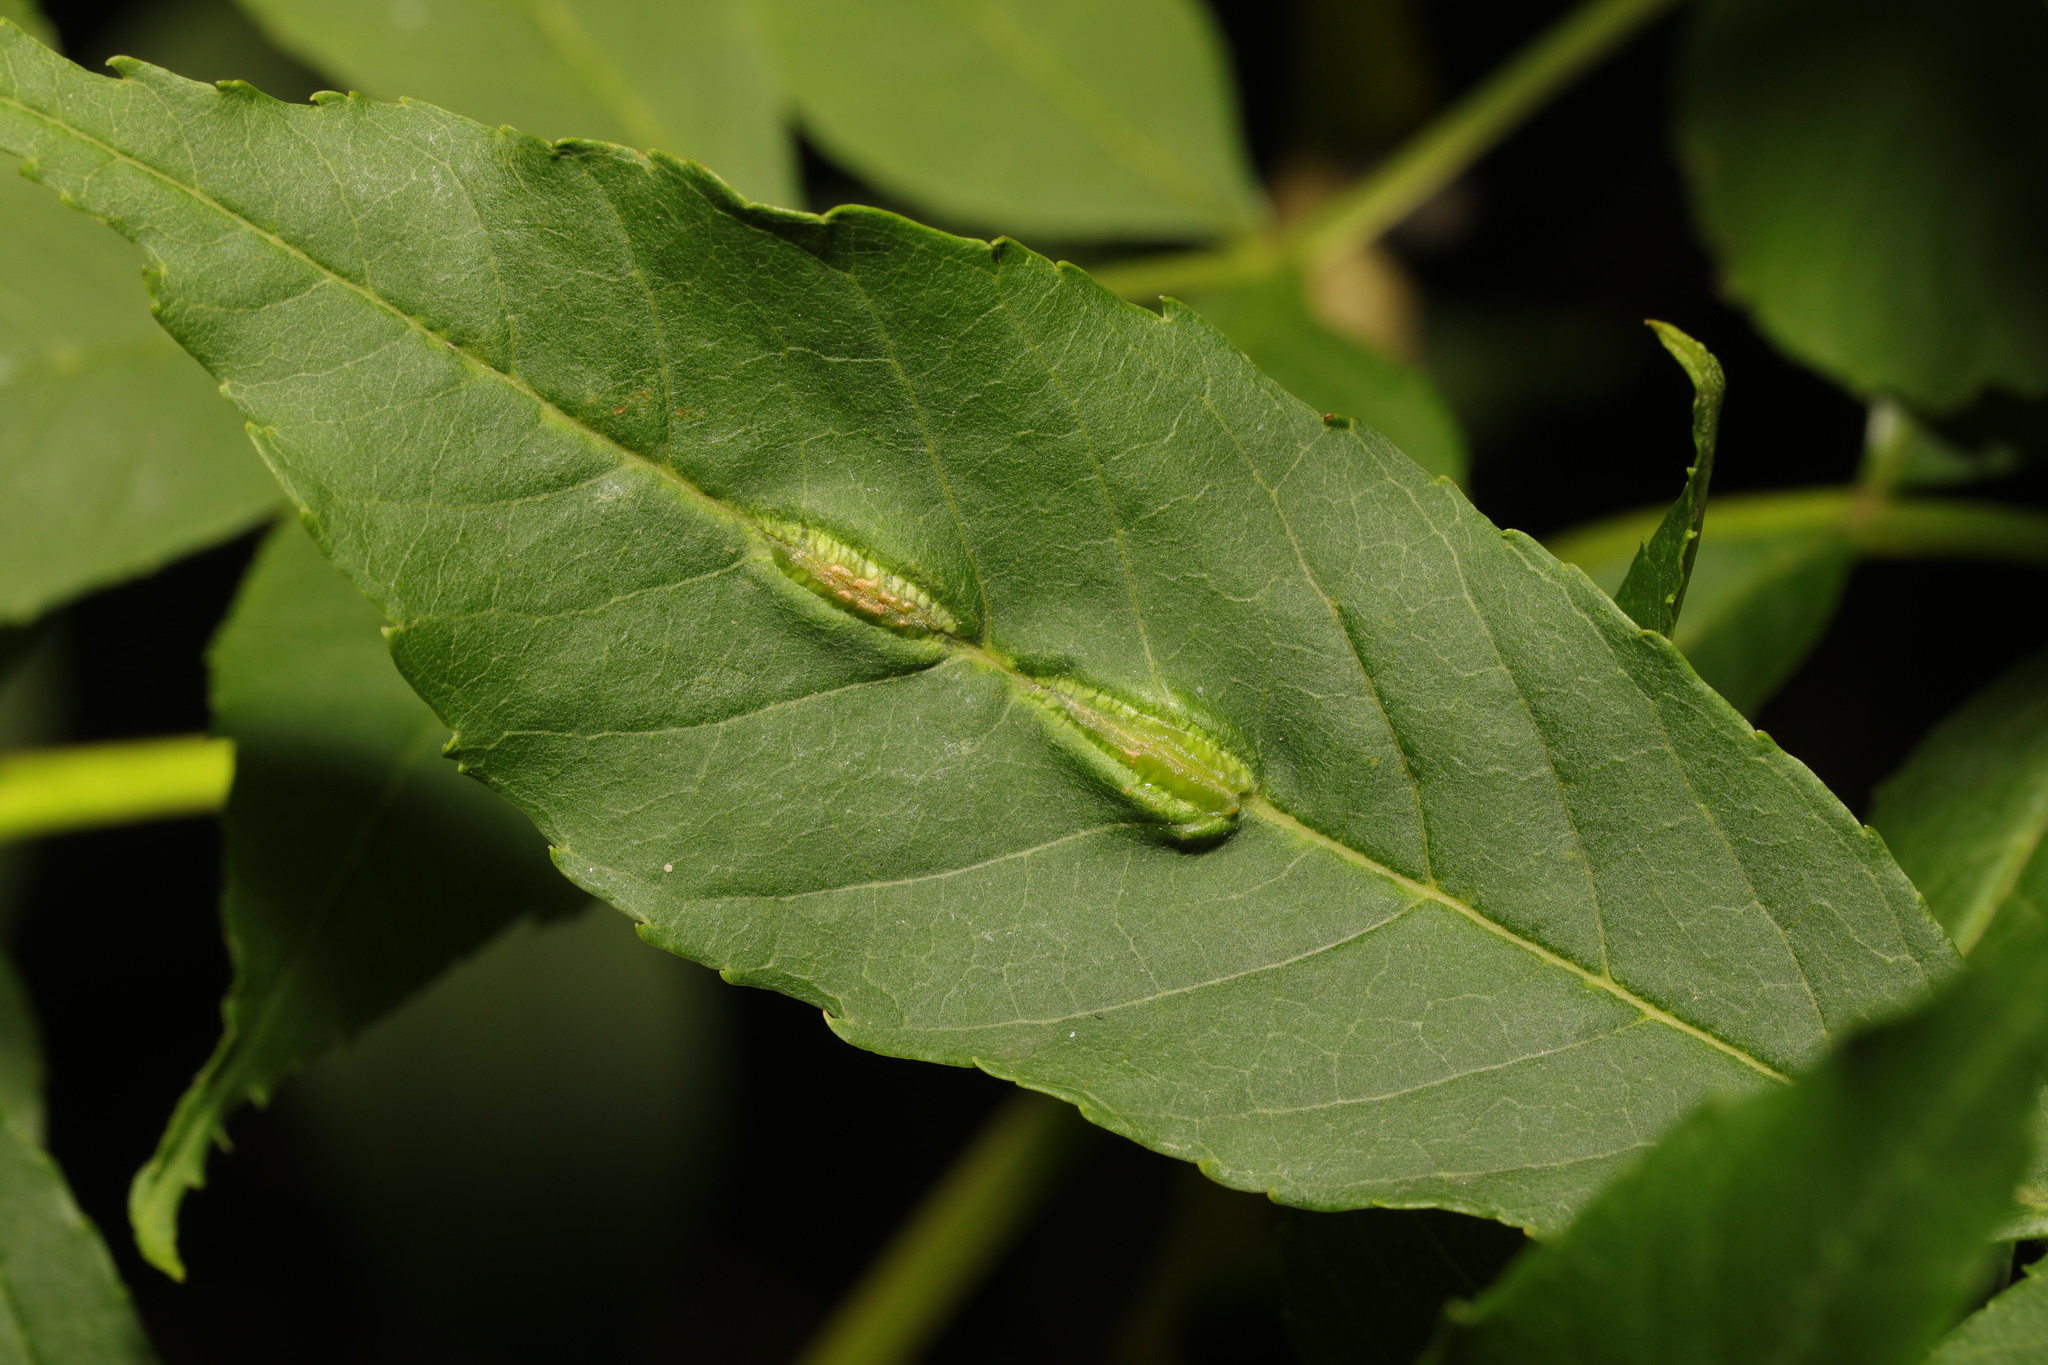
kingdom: Animalia
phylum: Arthropoda
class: Insecta
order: Diptera
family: Cecidomyiidae
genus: Dasineura
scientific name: Dasineura fraxini
